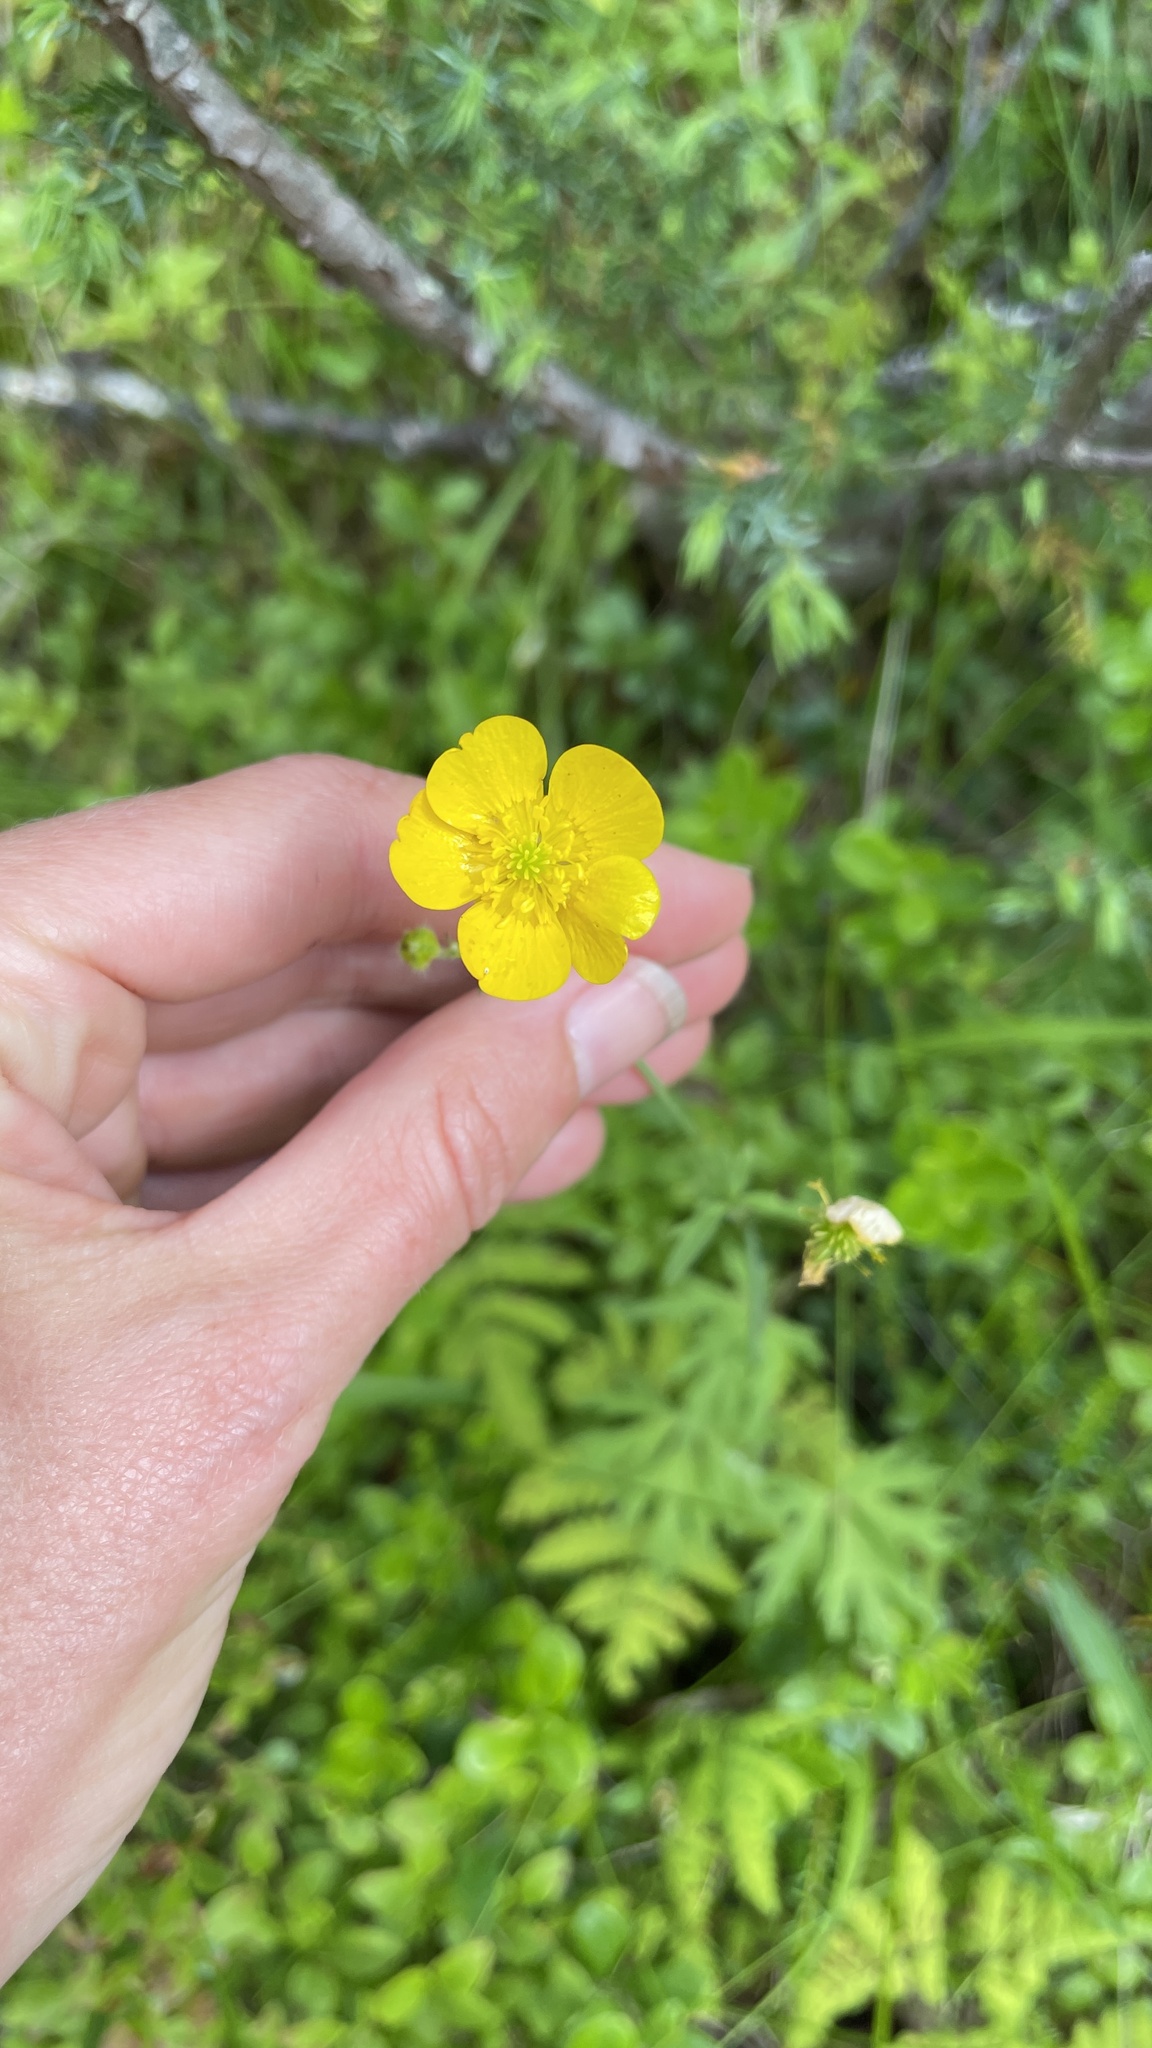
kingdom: Plantae
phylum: Tracheophyta
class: Magnoliopsida
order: Ranunculales
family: Ranunculaceae
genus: Ranunculus
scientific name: Ranunculus acris
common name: Meadow buttercup
